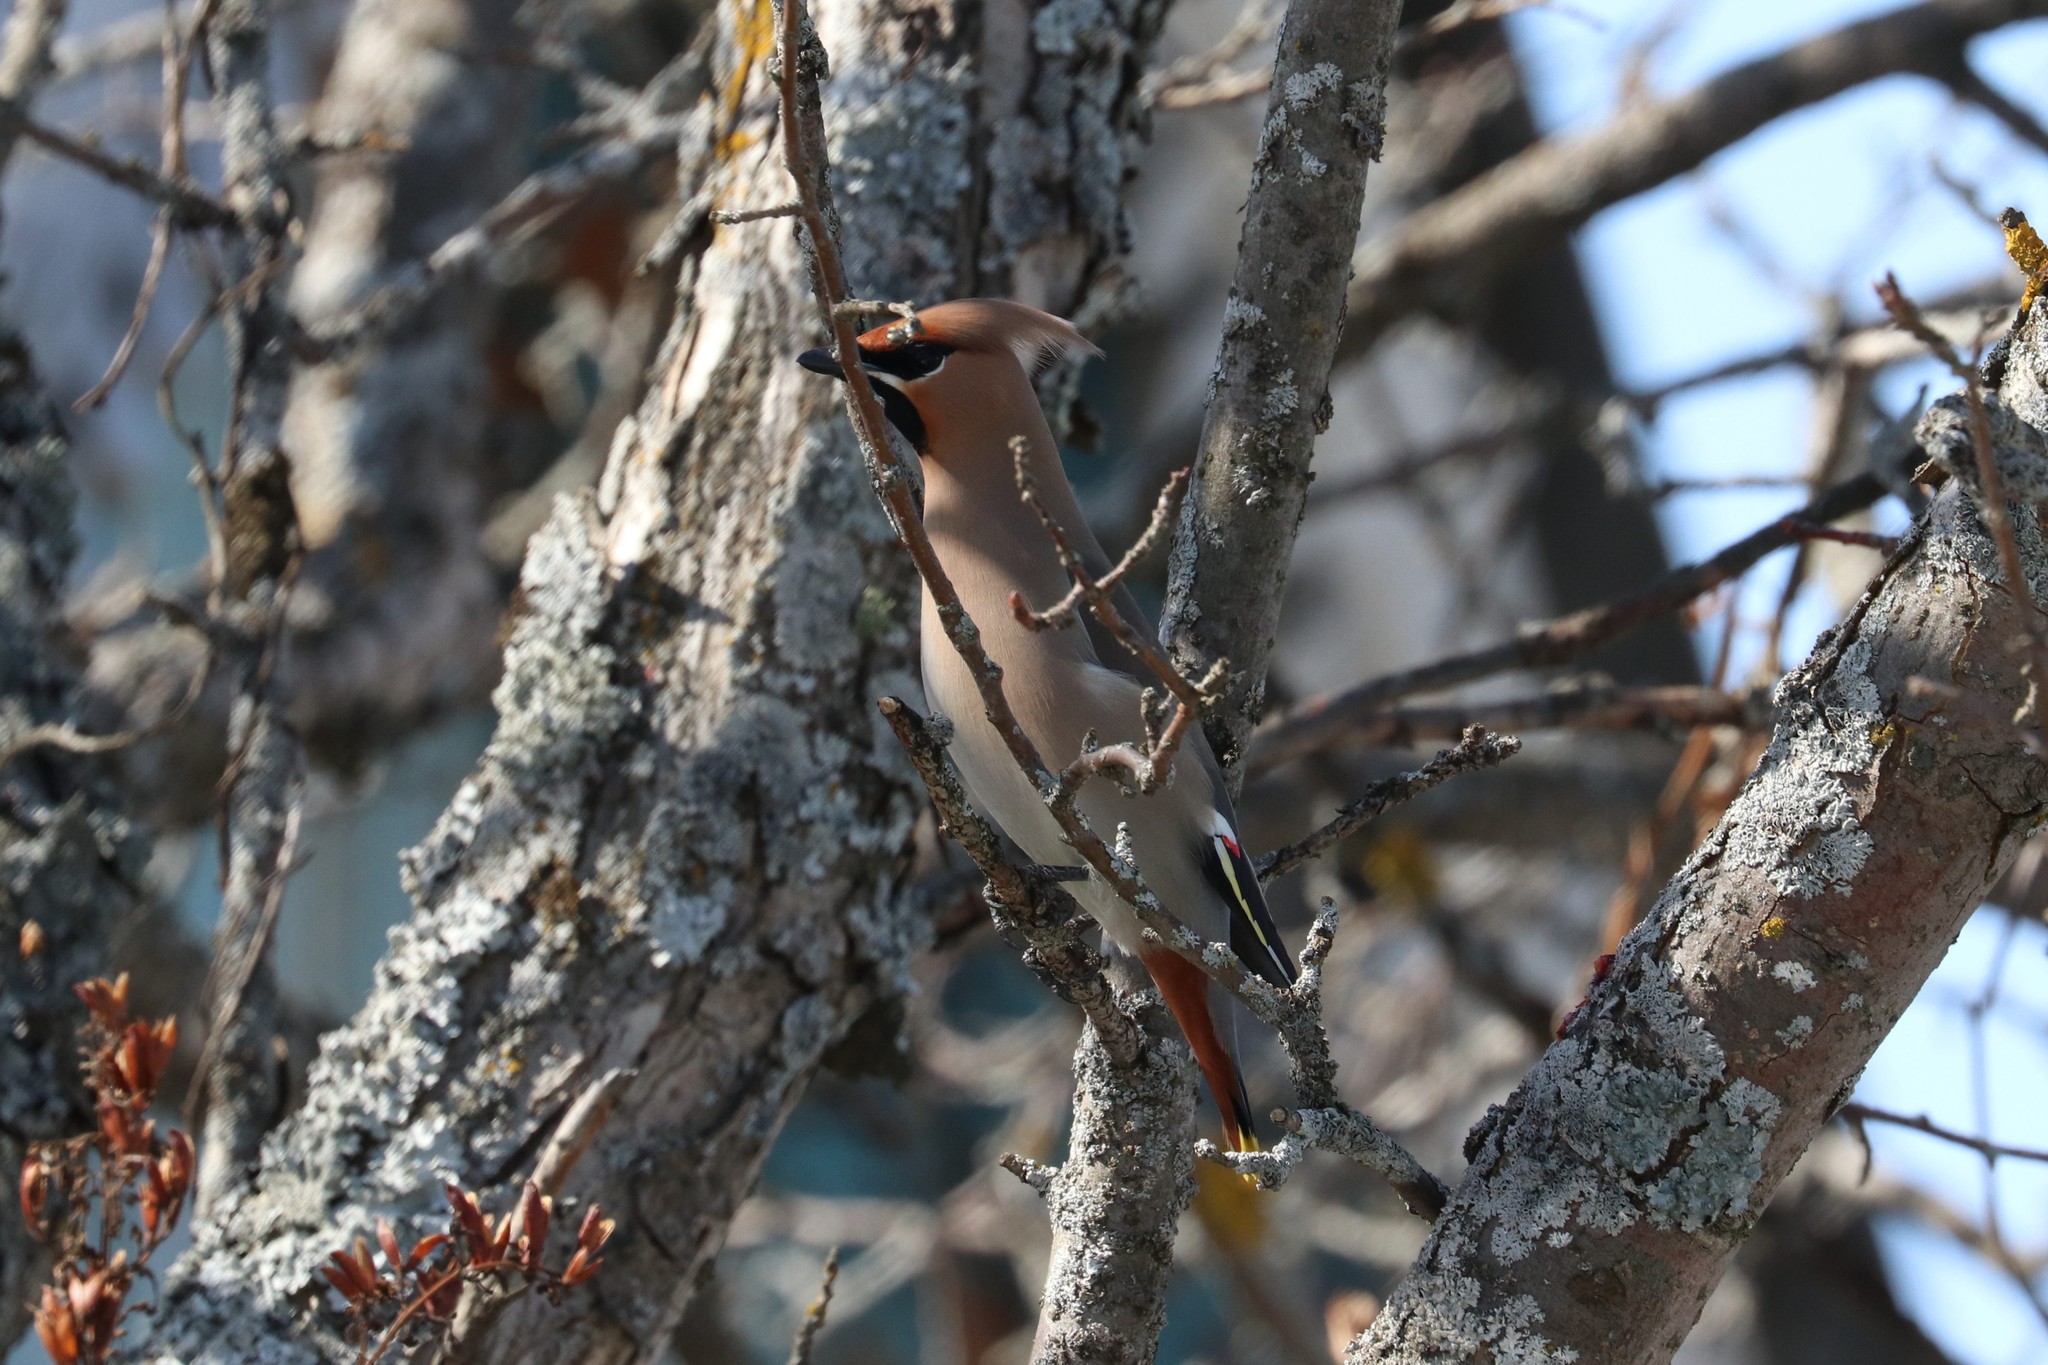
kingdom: Animalia
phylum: Chordata
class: Aves
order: Passeriformes
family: Bombycillidae
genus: Bombycilla
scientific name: Bombycilla garrulus
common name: Bohemian waxwing
